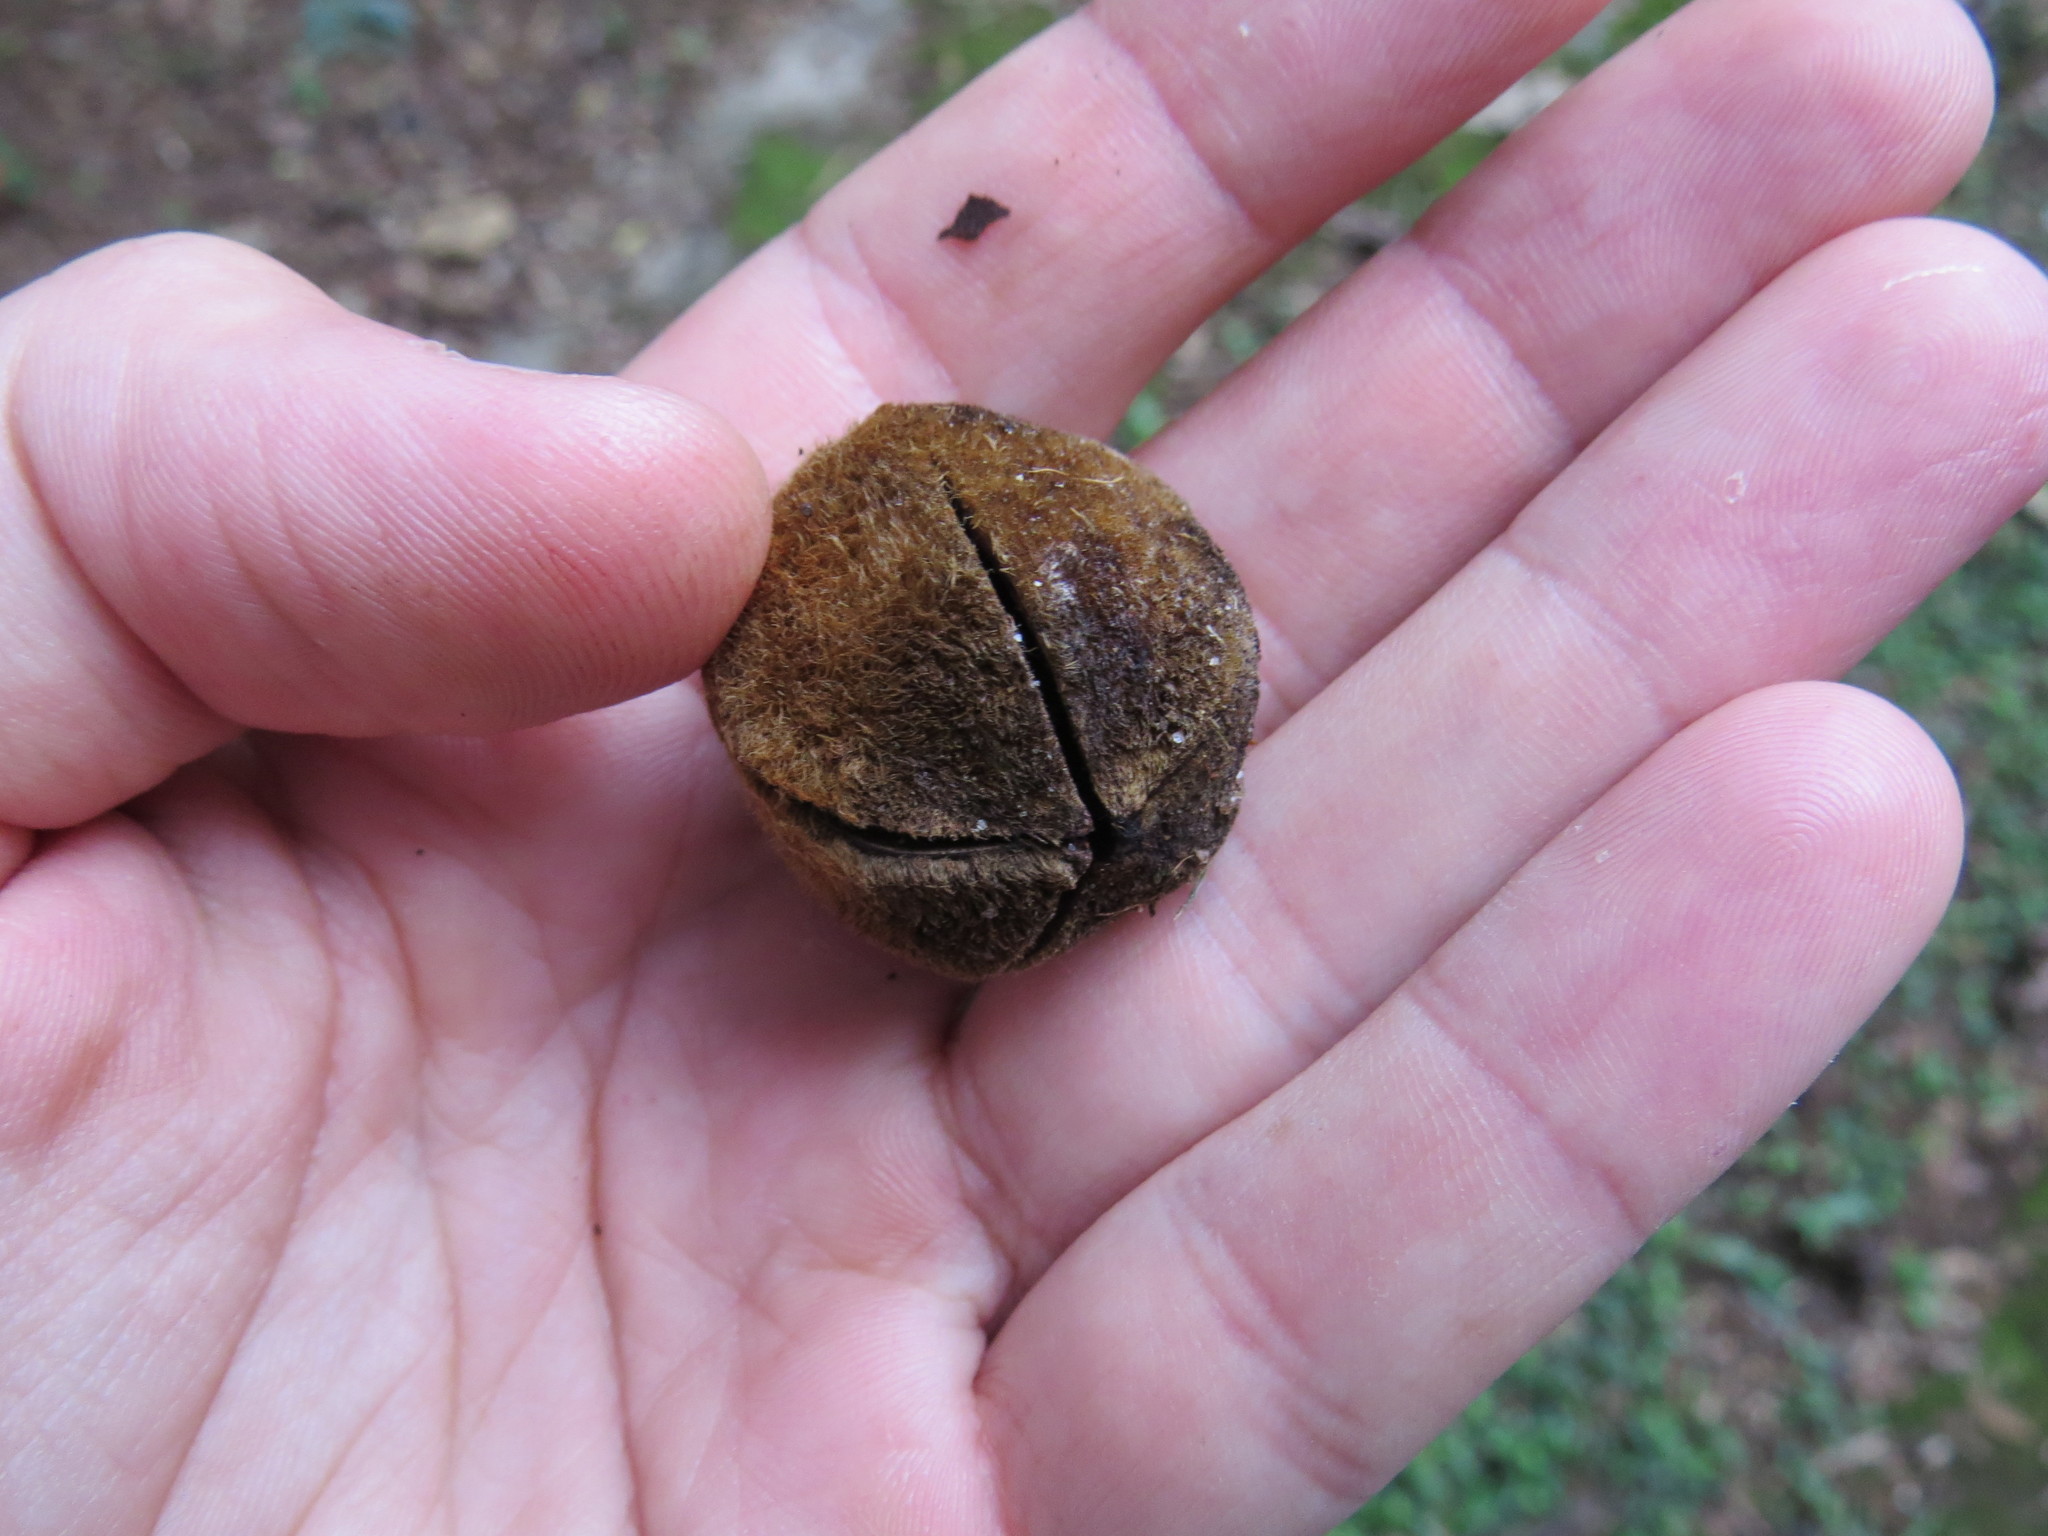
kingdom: Plantae
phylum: Tracheophyta
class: Magnoliopsida
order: Malvales
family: Malvaceae
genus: Luehea
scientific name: Luehea grandiflora
